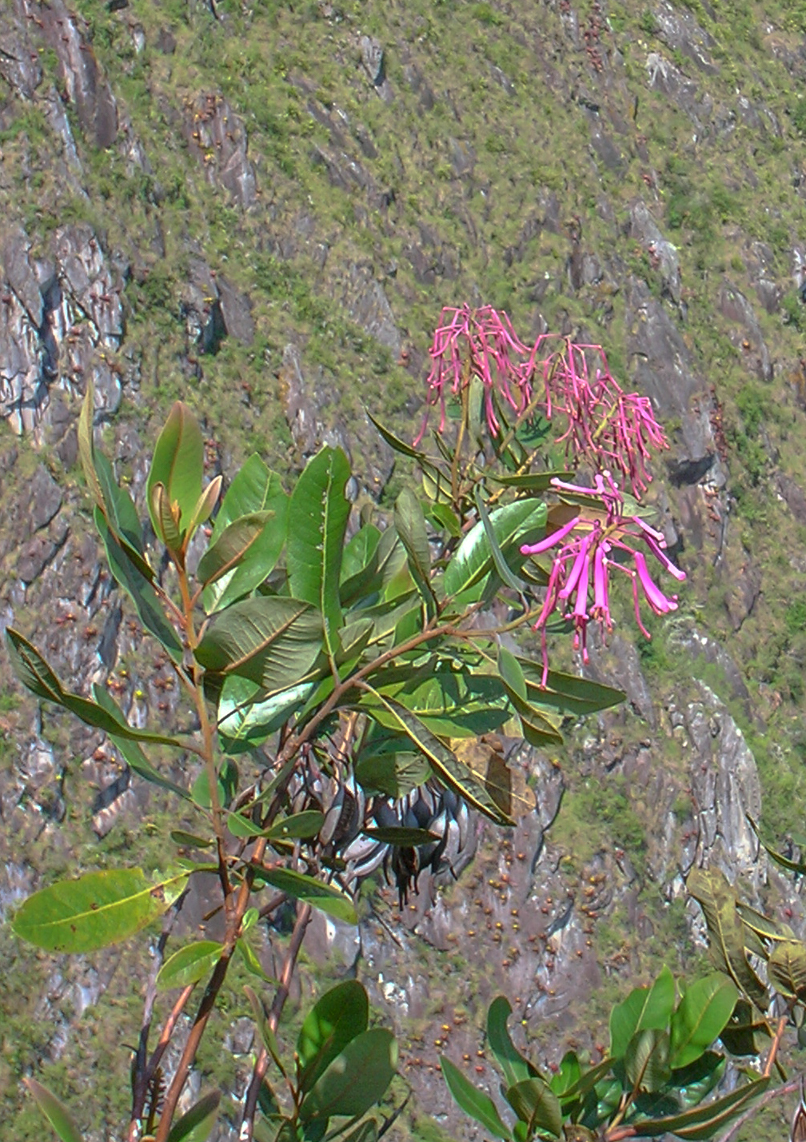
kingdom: Plantae
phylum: Tracheophyta
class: Magnoliopsida
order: Proteales
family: Proteaceae
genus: Oreocallis
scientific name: Oreocallis grandiflora
